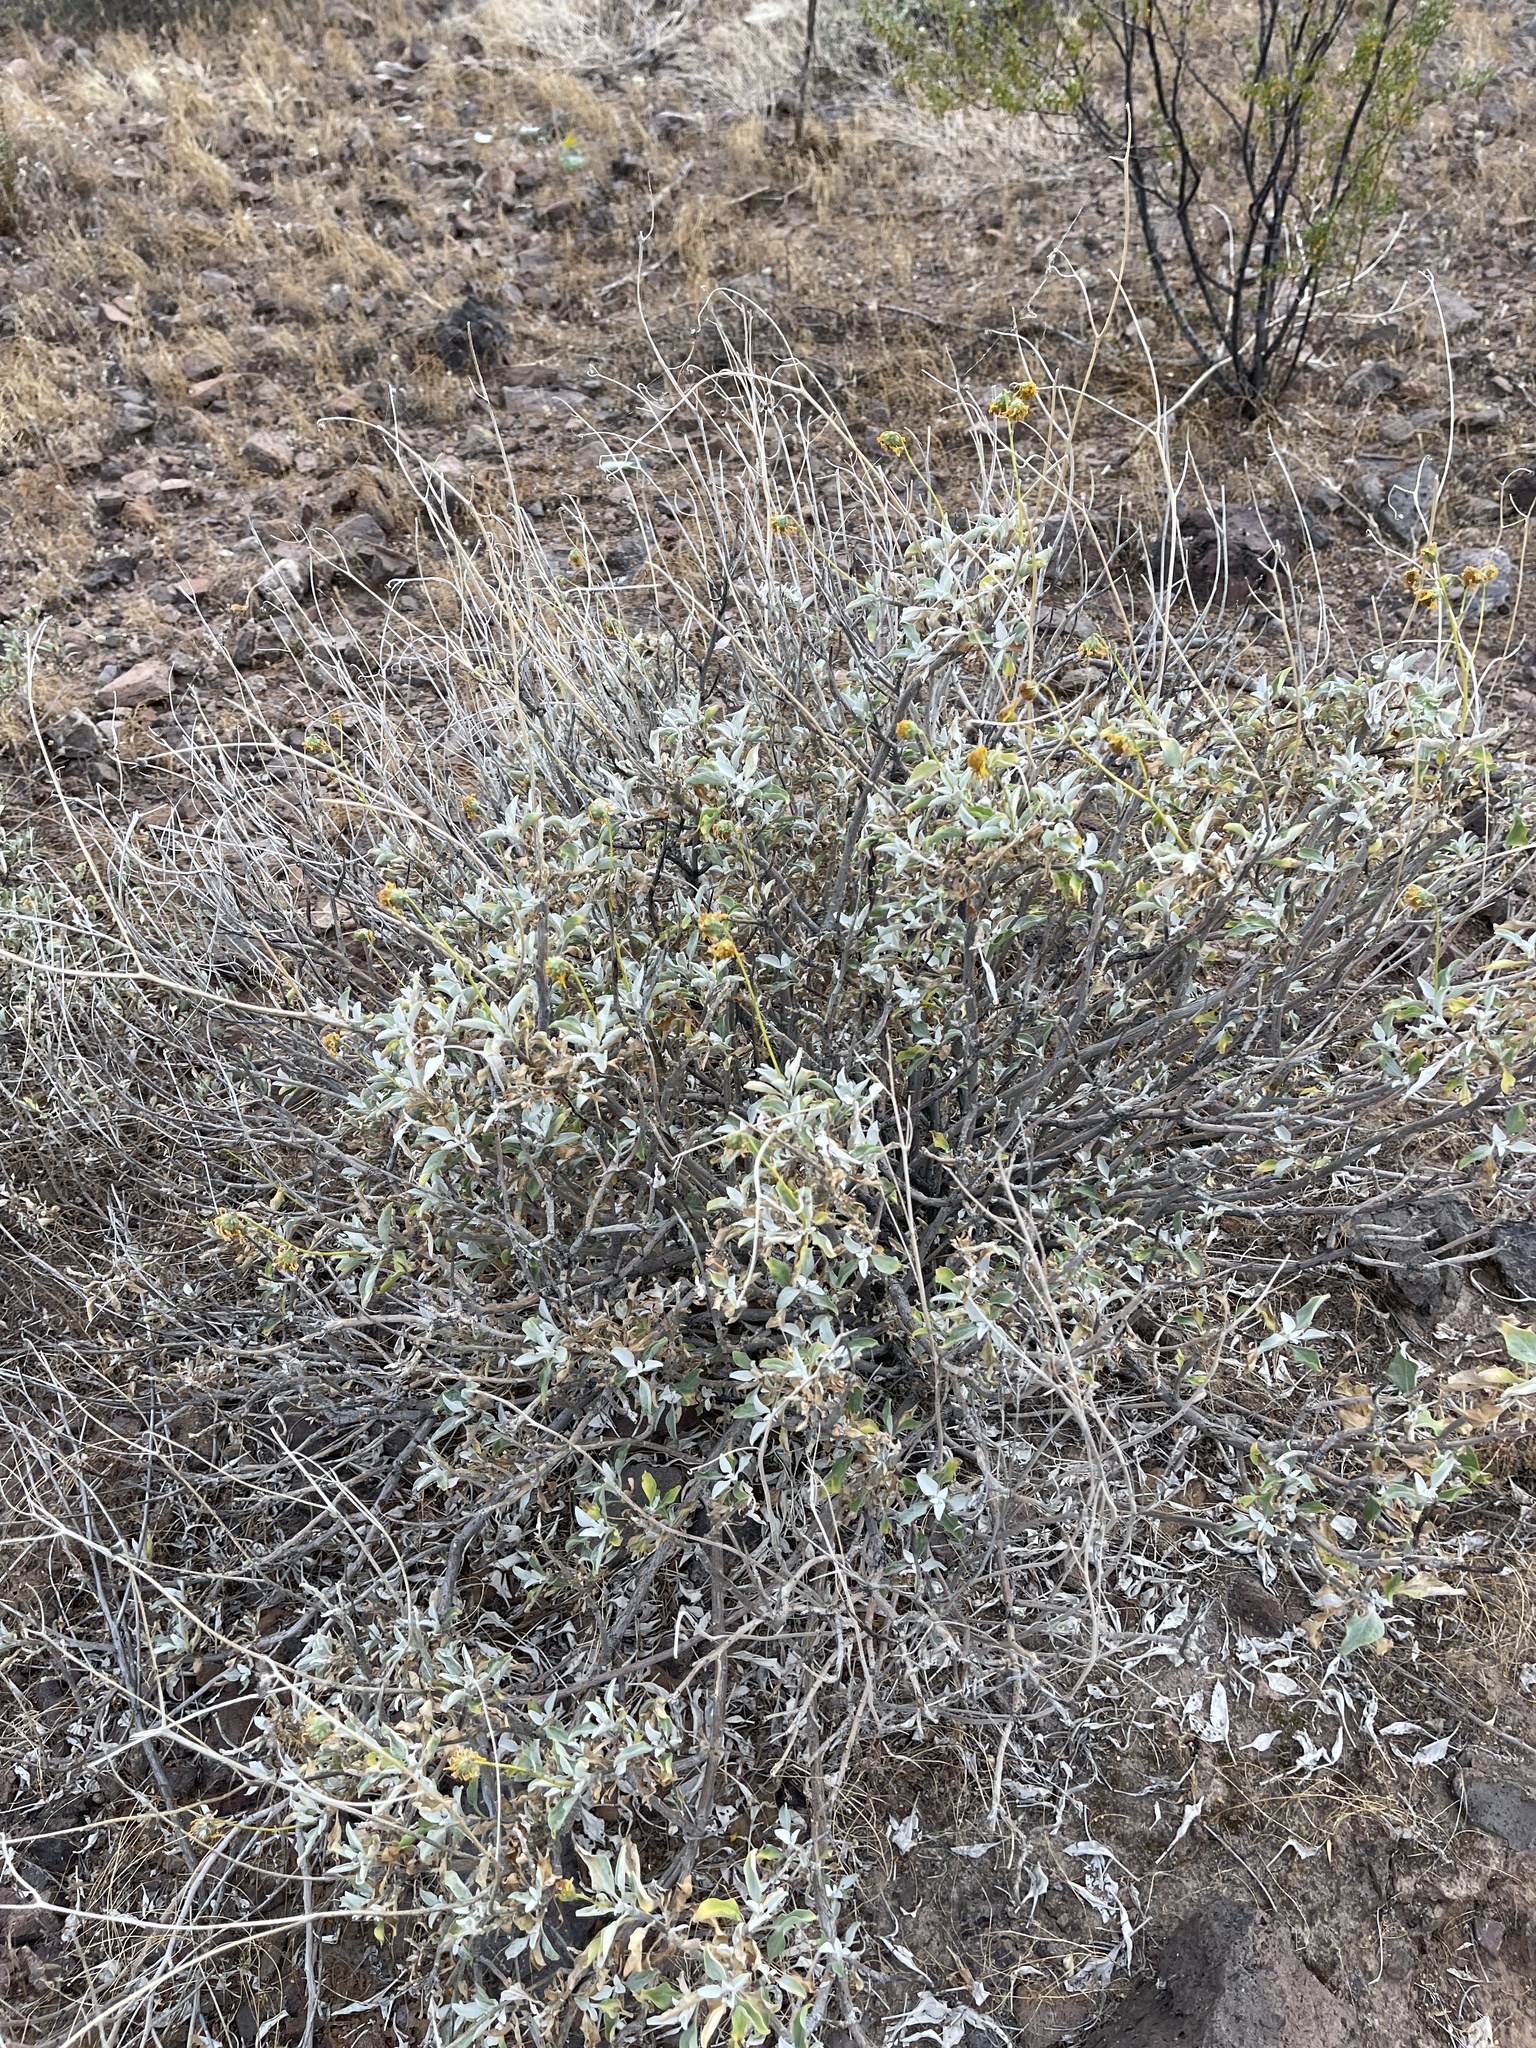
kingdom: Plantae
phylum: Tracheophyta
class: Magnoliopsida
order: Asterales
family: Asteraceae
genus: Ambrosia
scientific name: Ambrosia deltoidea
